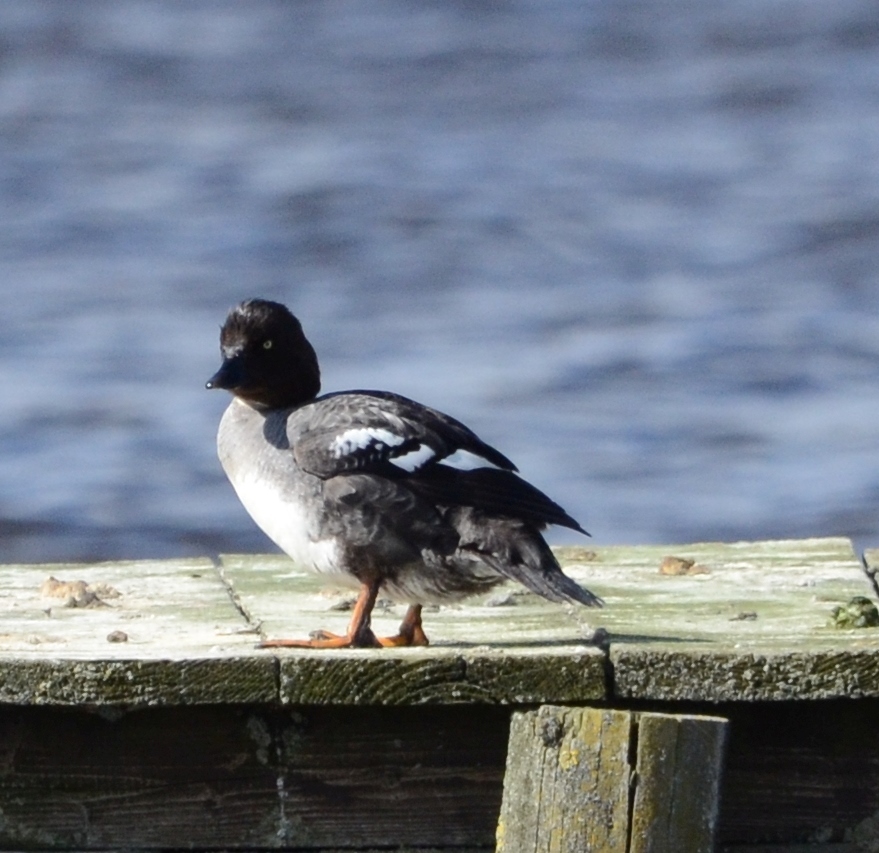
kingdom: Animalia
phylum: Chordata
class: Aves
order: Anseriformes
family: Anatidae
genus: Bucephala
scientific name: Bucephala clangula
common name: Common goldeneye
